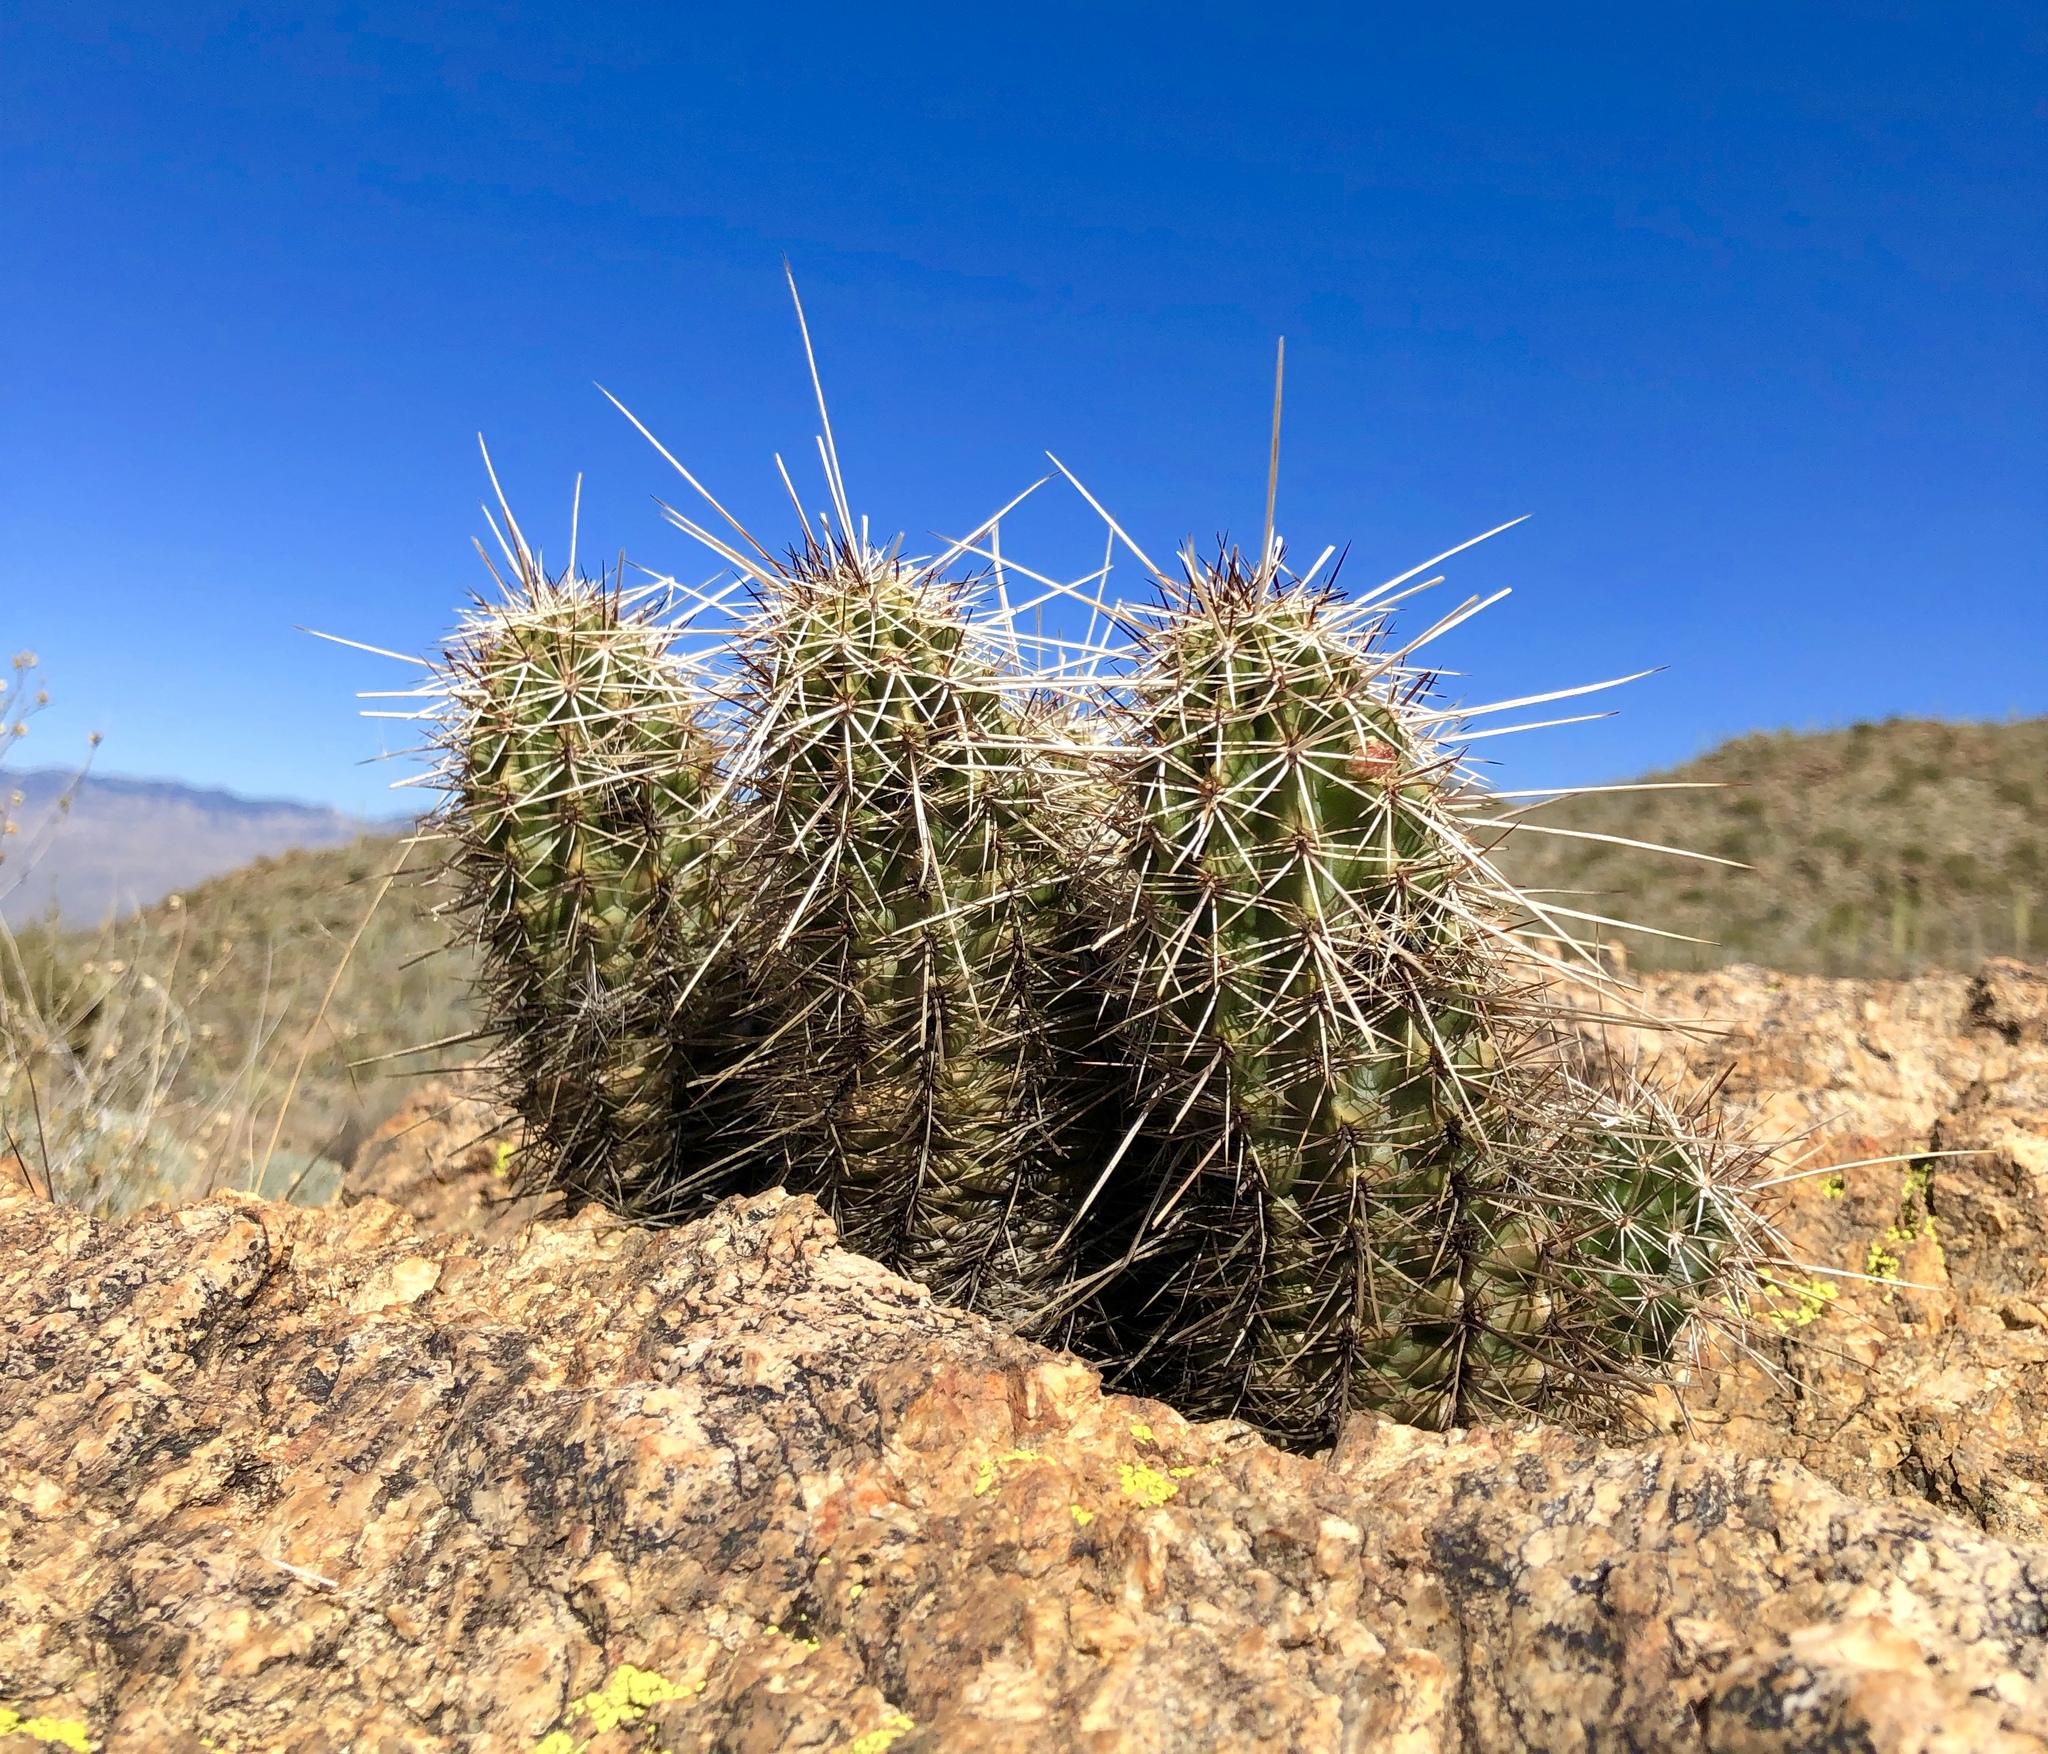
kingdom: Plantae
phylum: Tracheophyta
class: Magnoliopsida
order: Caryophyllales
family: Cactaceae
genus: Echinocereus
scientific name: Echinocereus fasciculatus
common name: Bundle hedgehog
